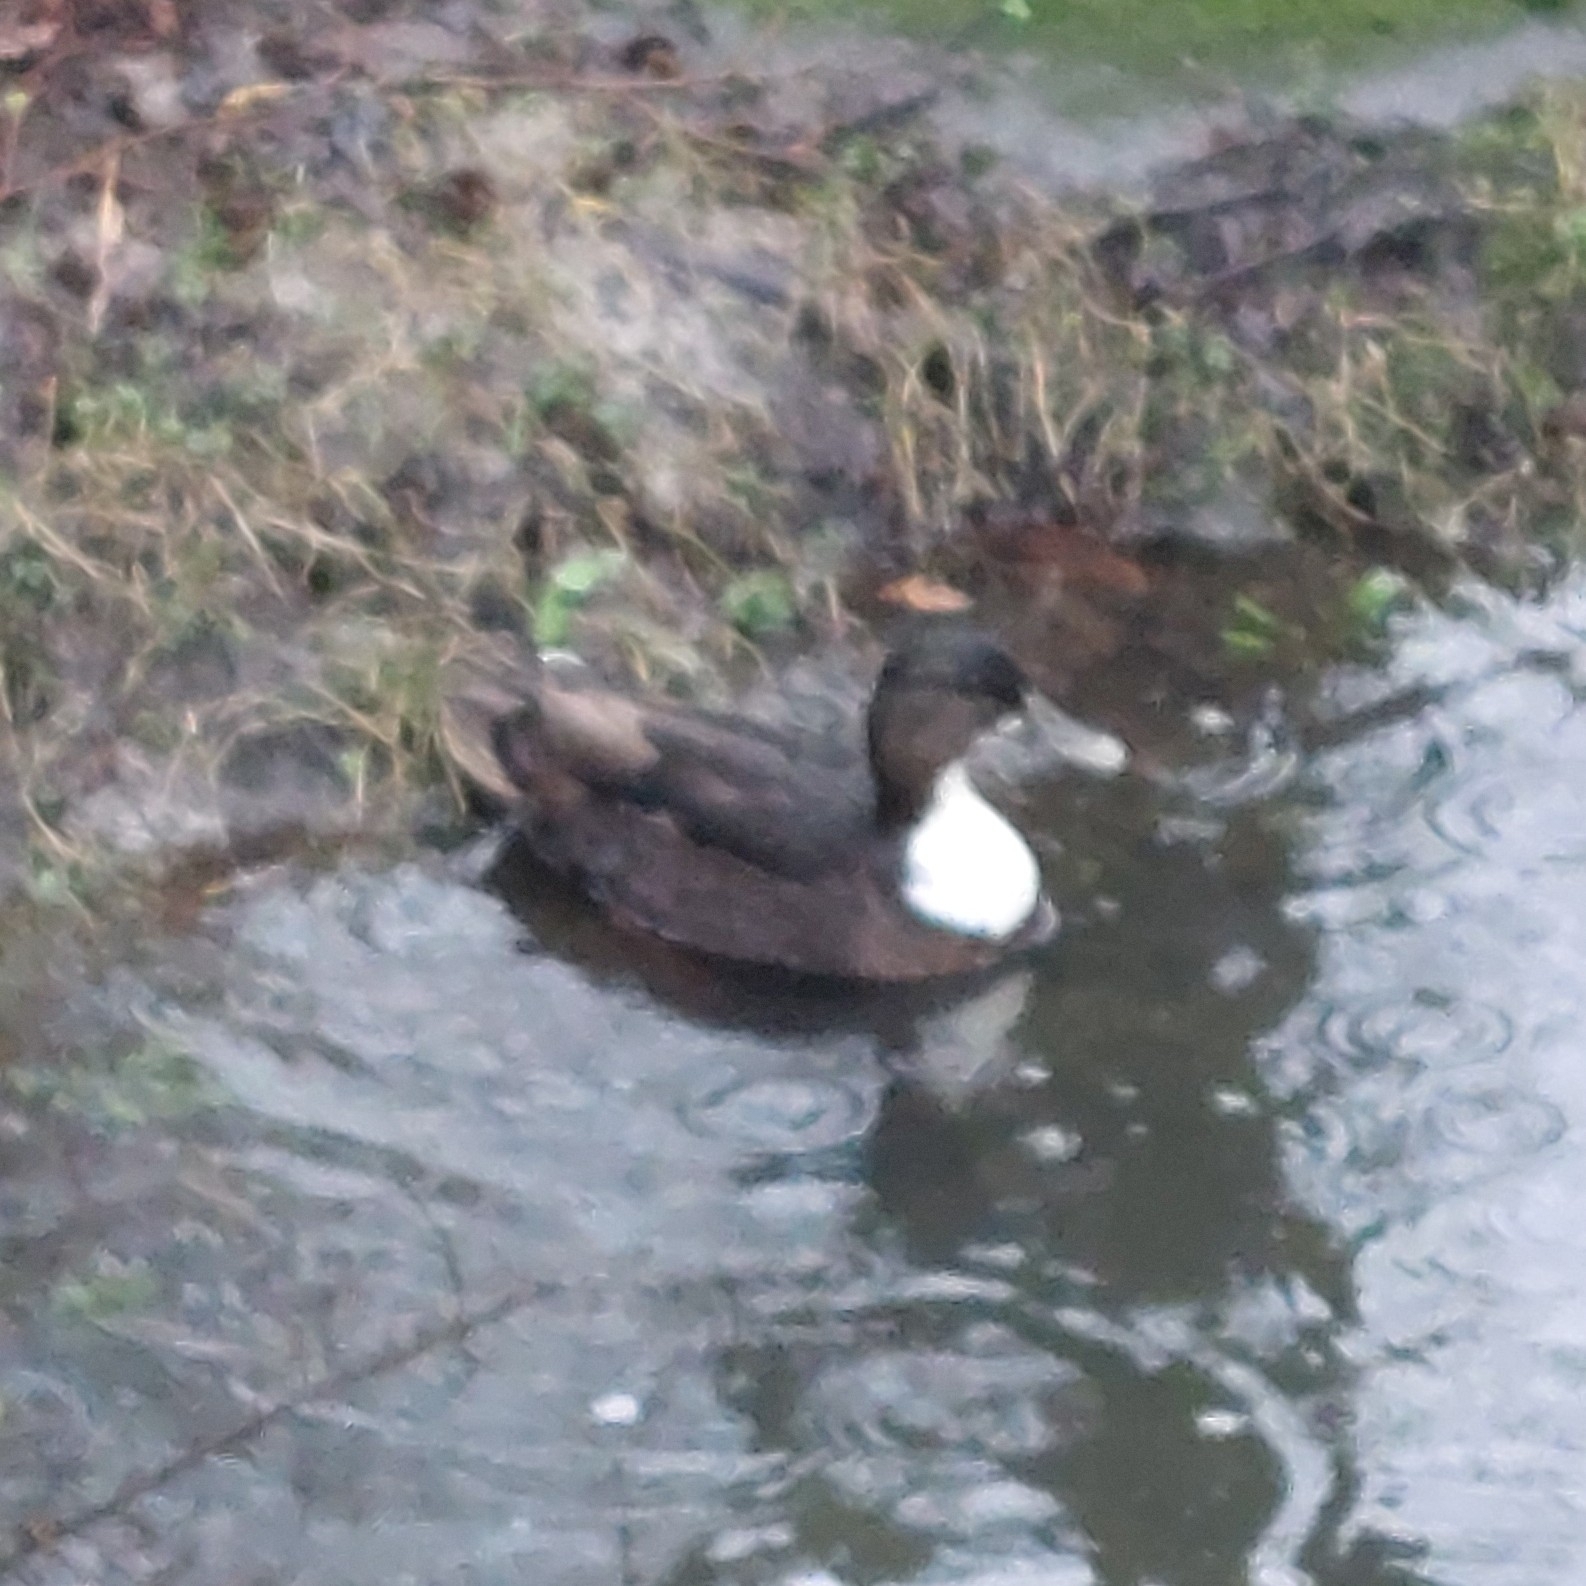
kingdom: Animalia
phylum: Chordata
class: Aves
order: Anseriformes
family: Anatidae
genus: Anas
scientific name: Anas platyrhynchos
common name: Mallard
